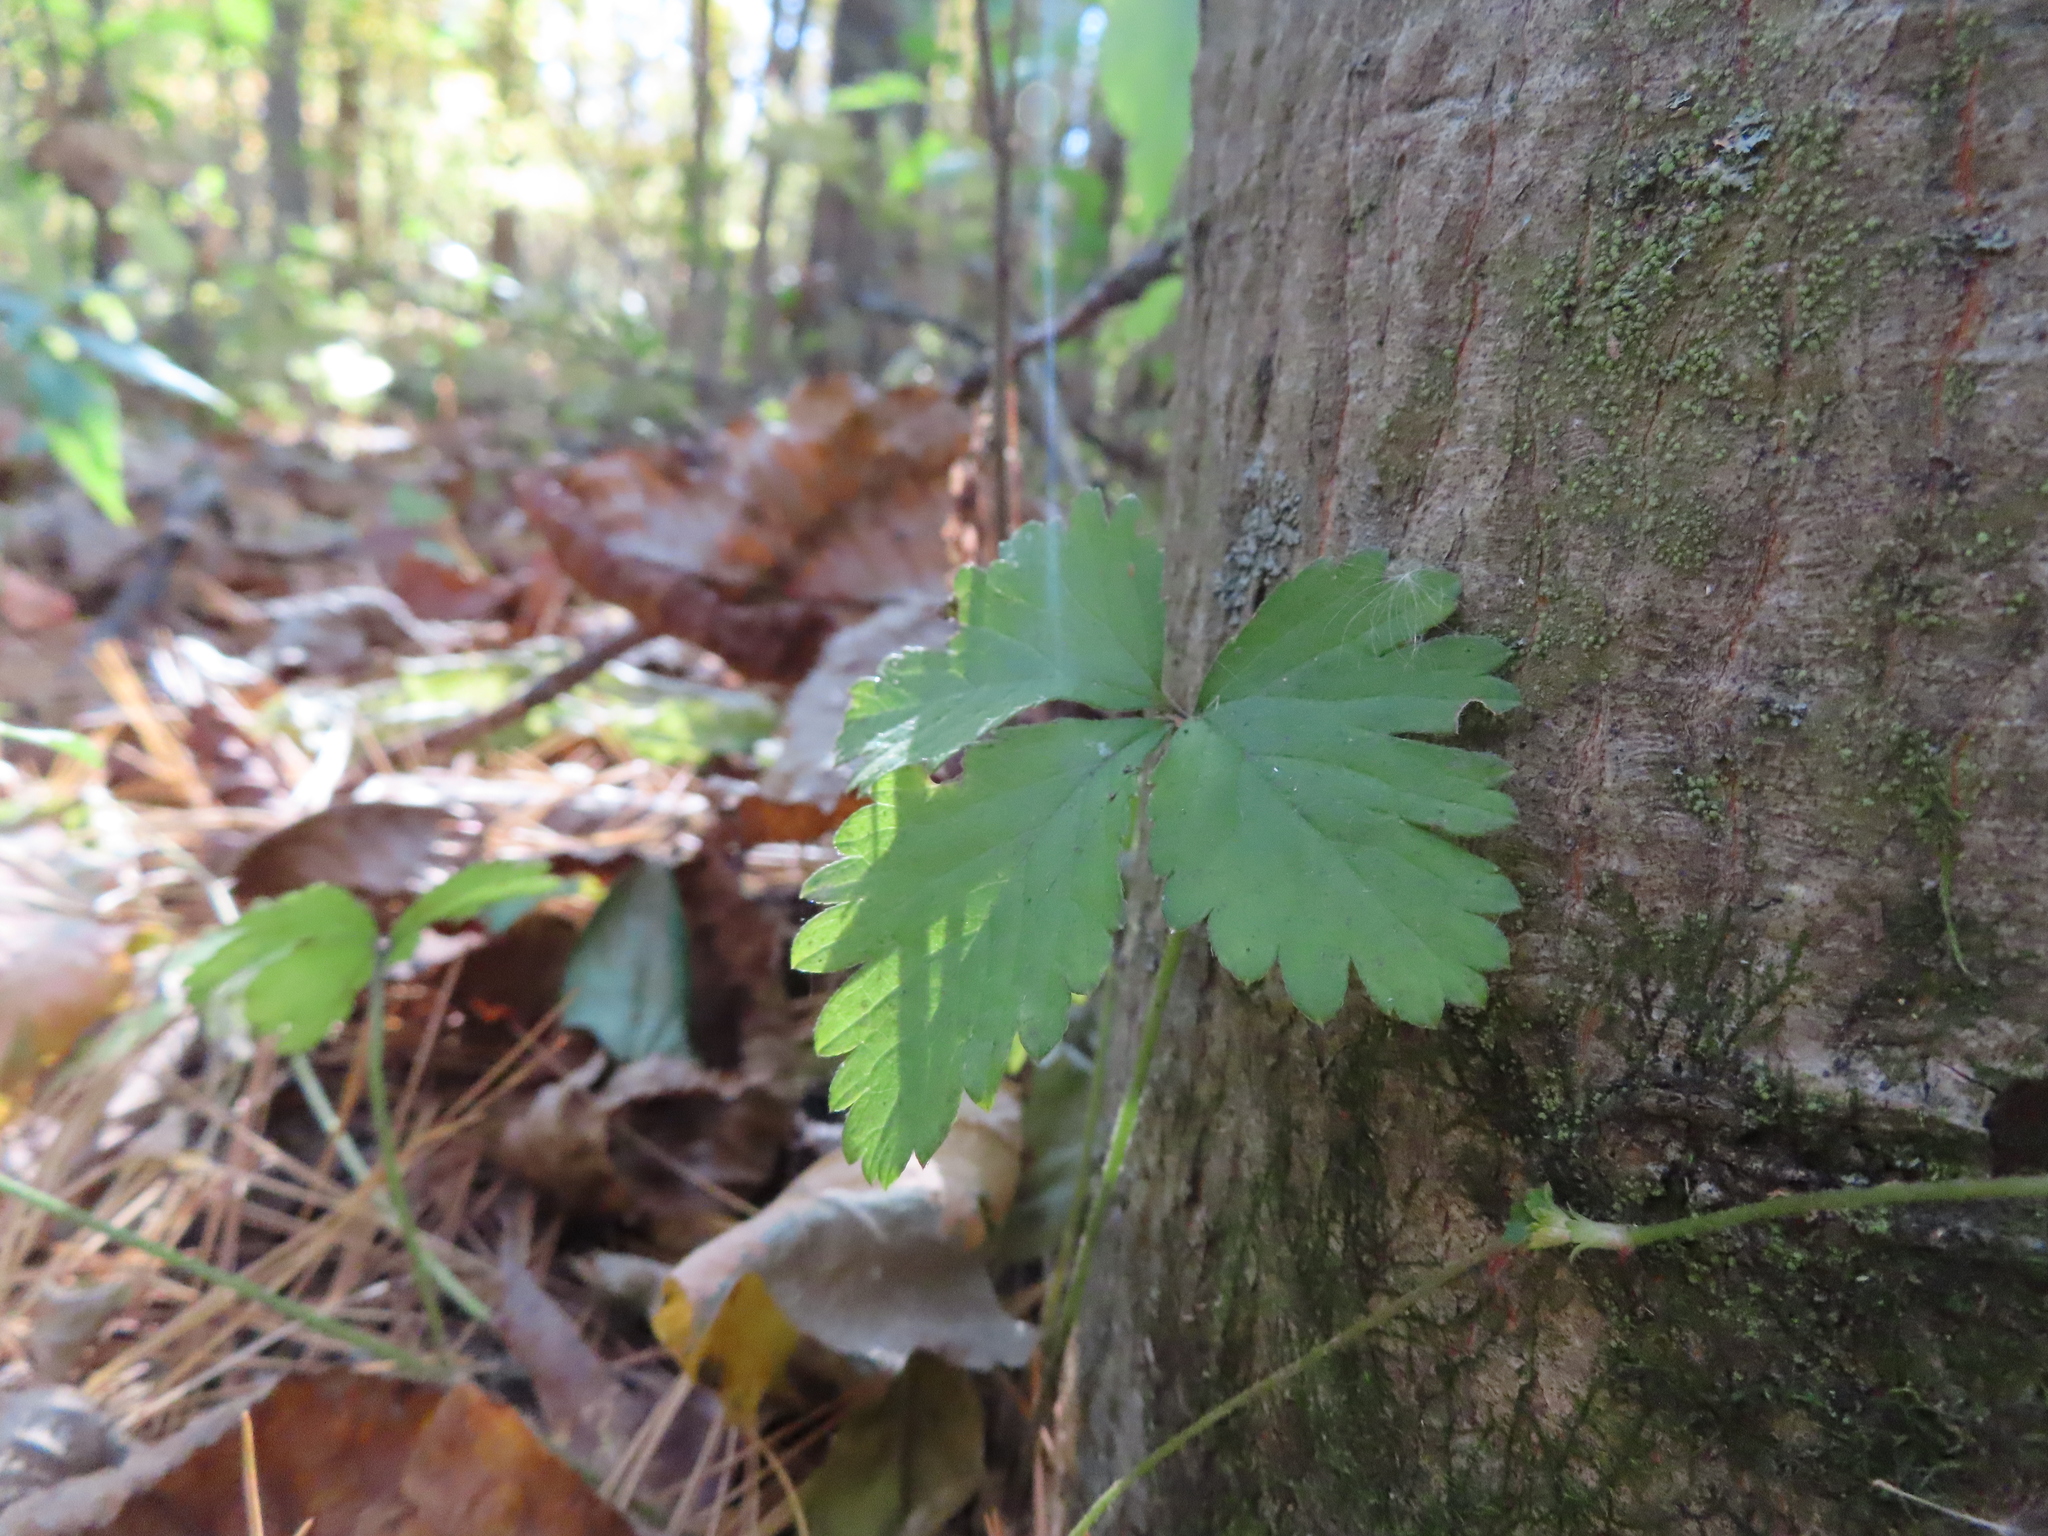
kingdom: Plantae
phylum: Tracheophyta
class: Magnoliopsida
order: Rosales
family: Rosaceae
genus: Potentilla
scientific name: Potentilla indica
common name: Yellow-flowered strawberry
